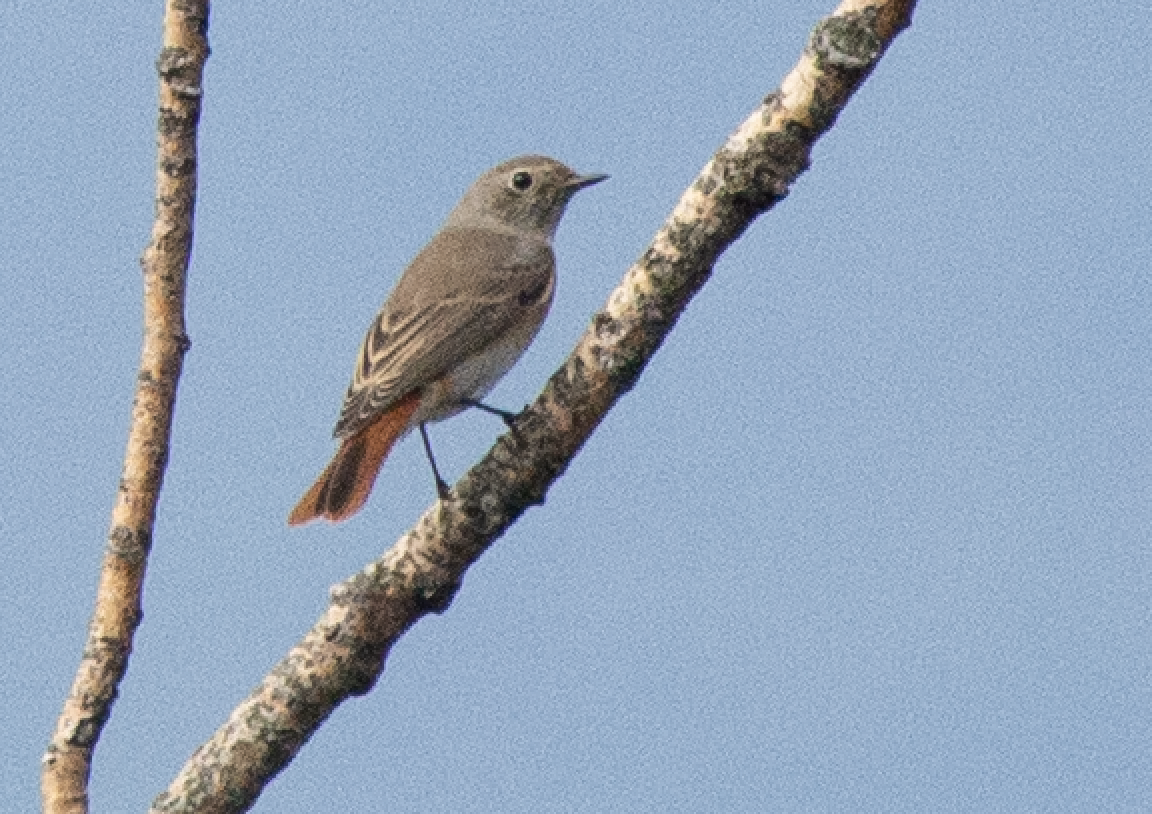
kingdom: Animalia
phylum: Chordata
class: Aves
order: Passeriformes
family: Muscicapidae
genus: Phoenicurus
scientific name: Phoenicurus phoenicurus
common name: Common redstart
